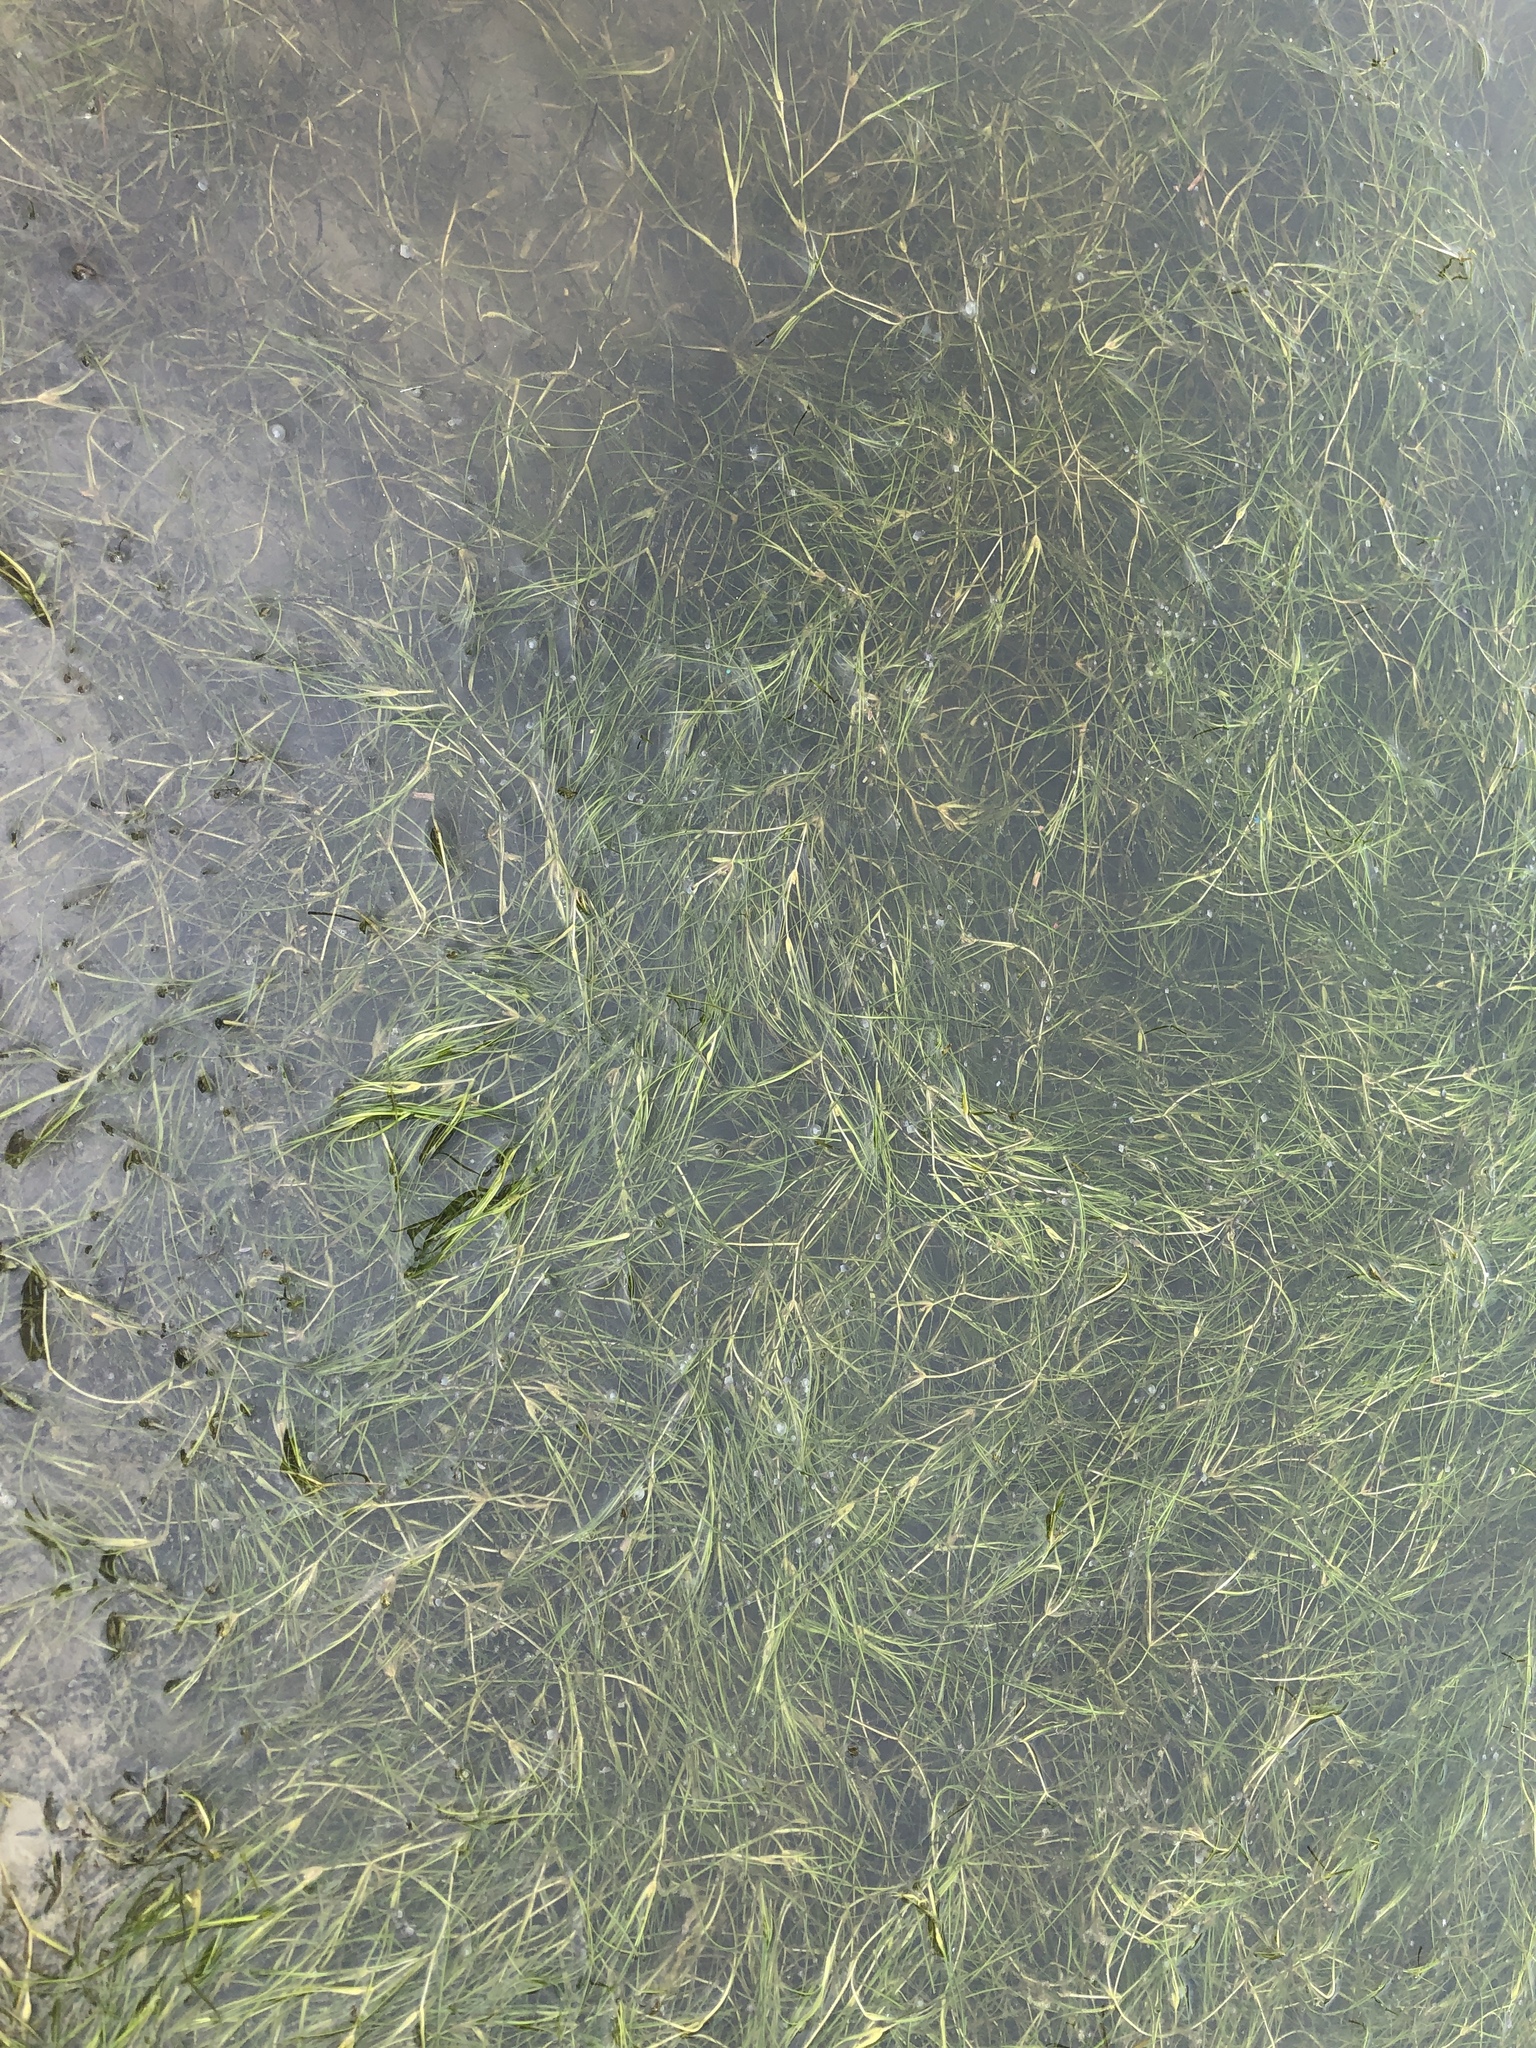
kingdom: Plantae
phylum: Tracheophyta
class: Liliopsida
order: Alismatales
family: Ruppiaceae
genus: Ruppia
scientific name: Ruppia maritima
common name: Beaked tasselweed
